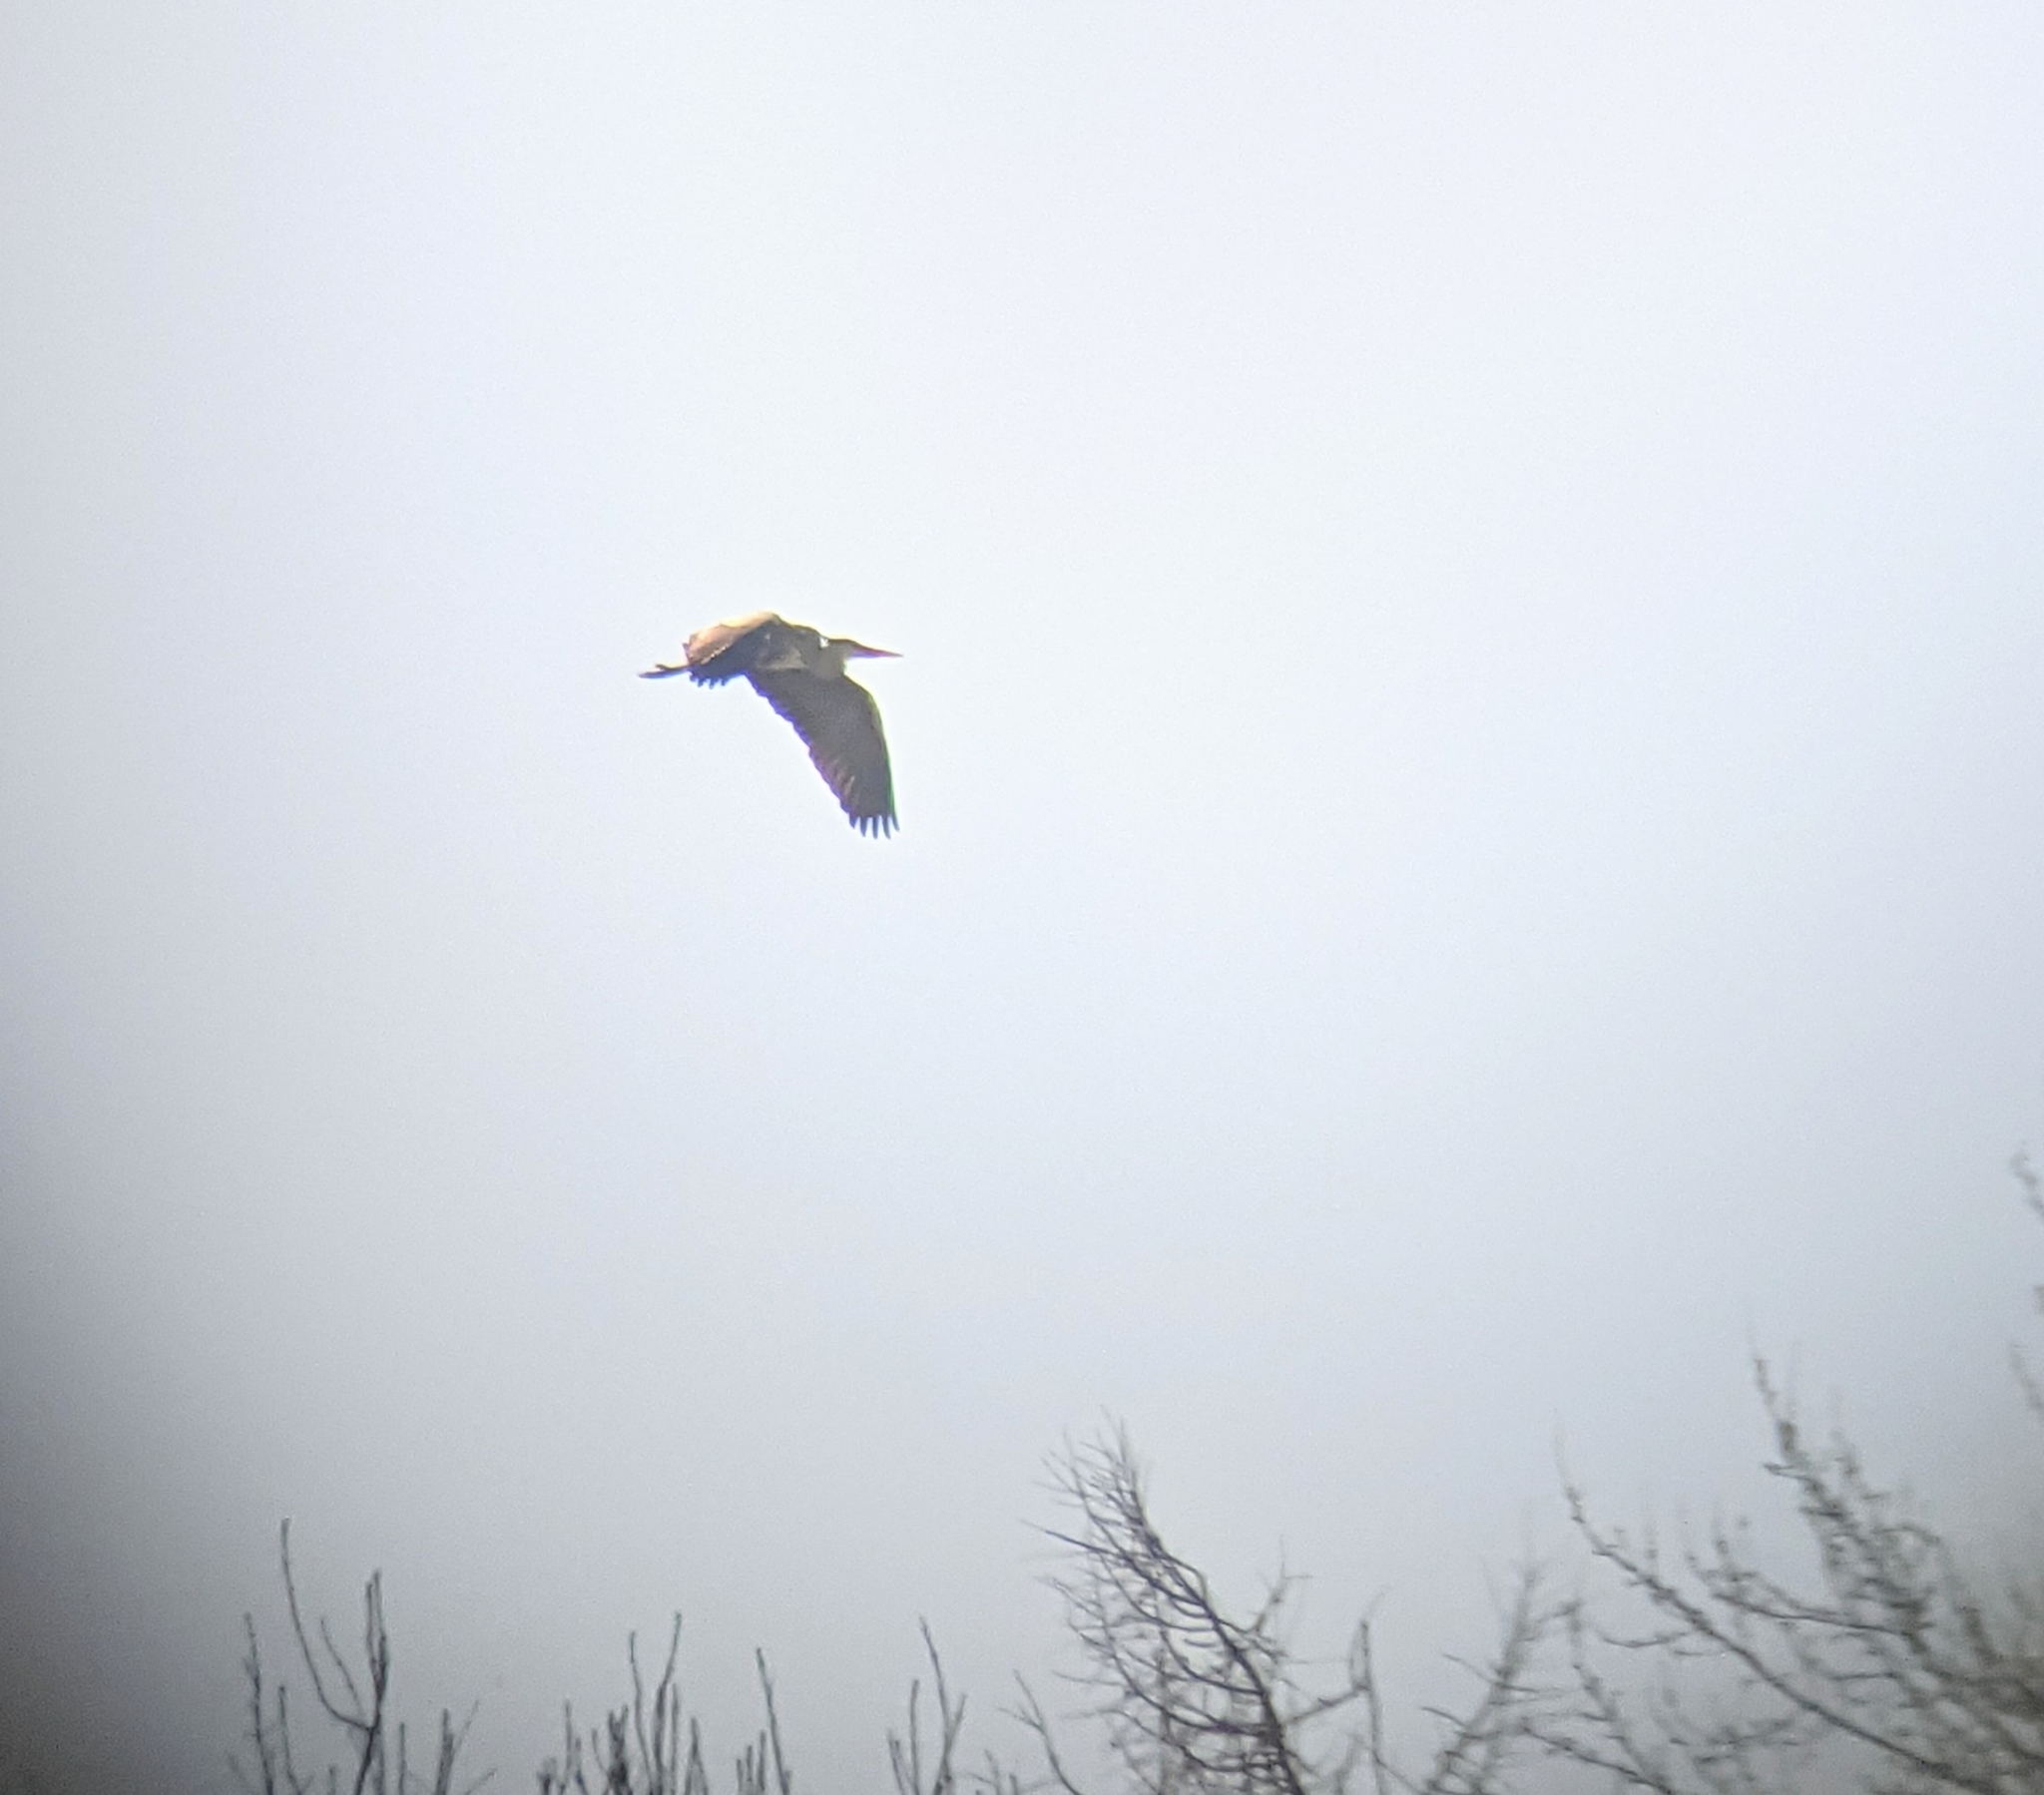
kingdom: Animalia
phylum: Chordata
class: Aves
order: Pelecaniformes
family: Ardeidae
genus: Ardea
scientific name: Ardea cinerea
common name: Grey heron
